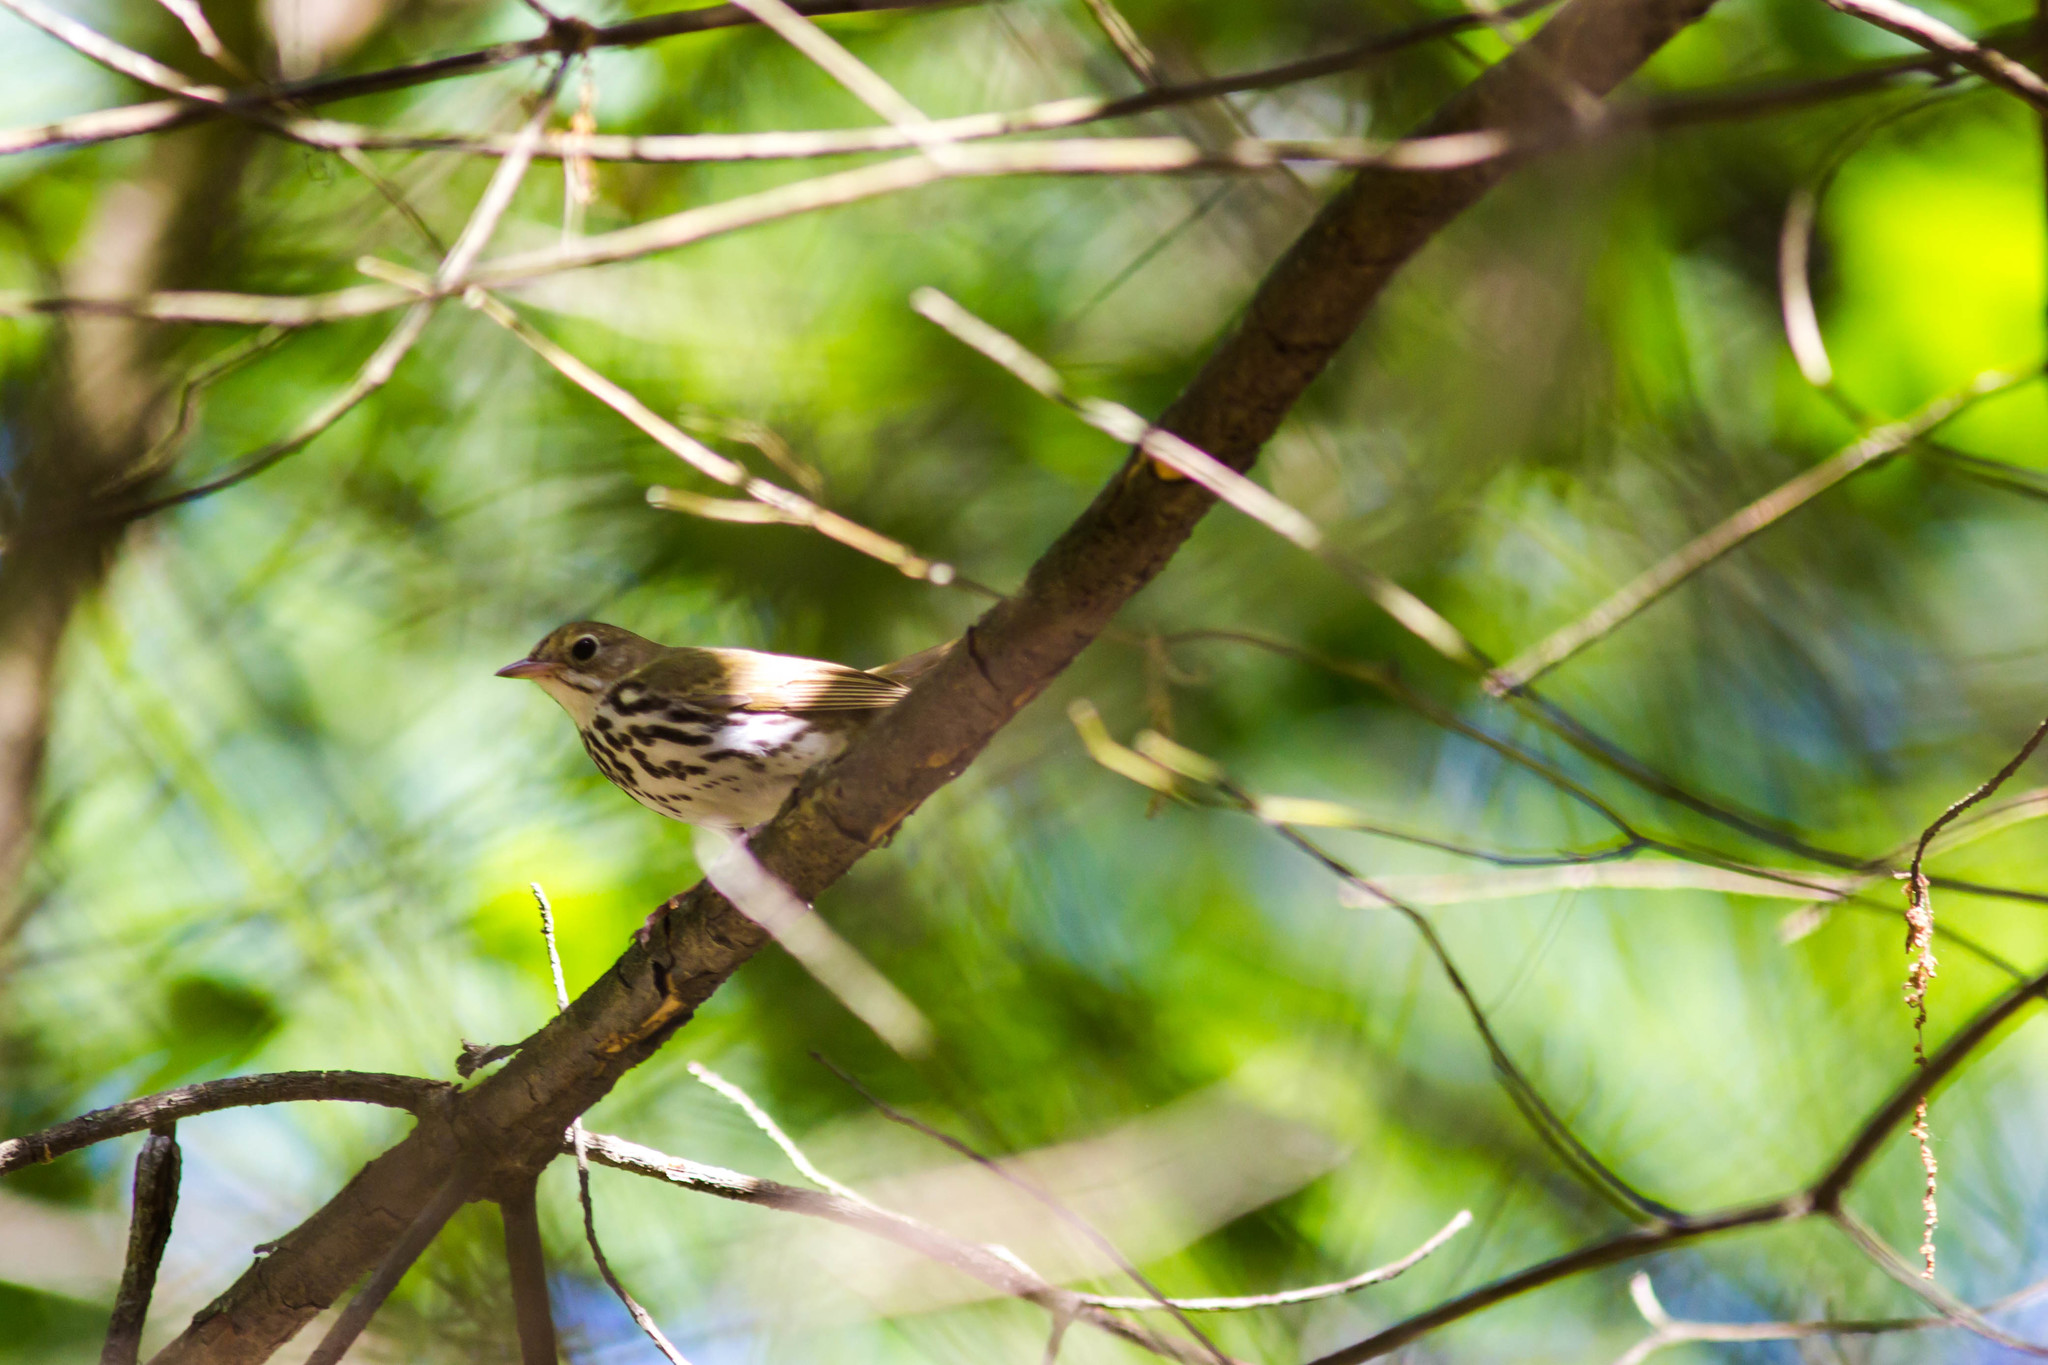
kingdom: Animalia
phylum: Chordata
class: Aves
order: Passeriformes
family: Parulidae
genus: Seiurus
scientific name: Seiurus aurocapilla
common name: Ovenbird
